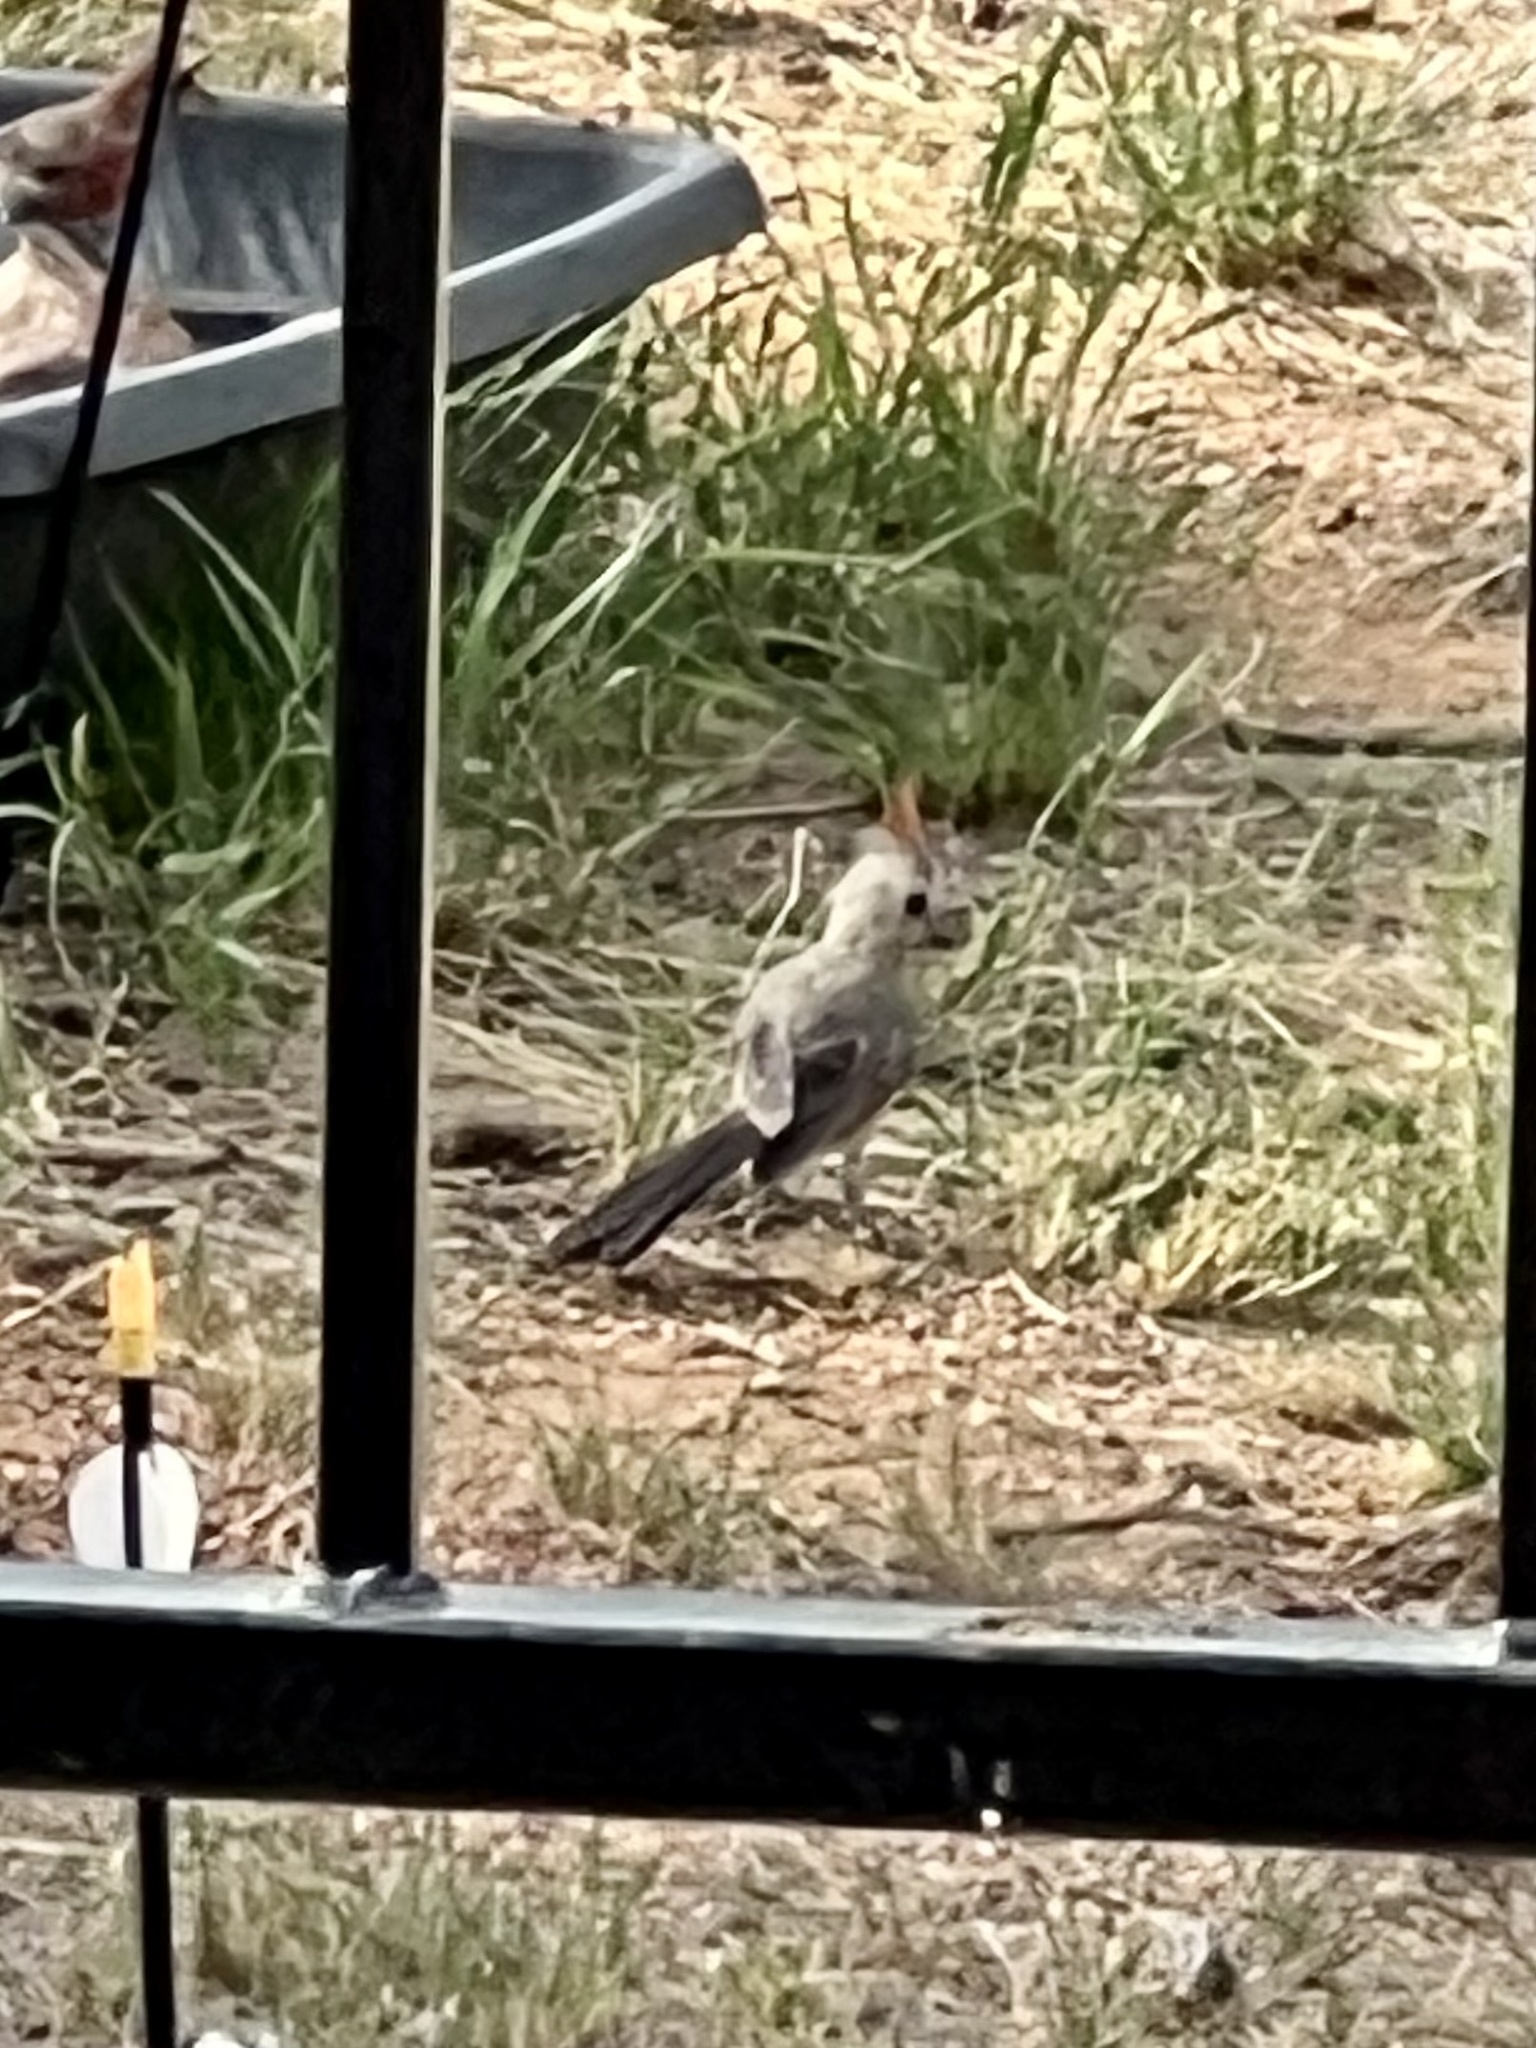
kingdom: Animalia
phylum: Chordata
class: Aves
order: Passeriformes
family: Cardinalidae
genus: Cardinalis
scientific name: Cardinalis sinuatus
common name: Pyrrhuloxia
